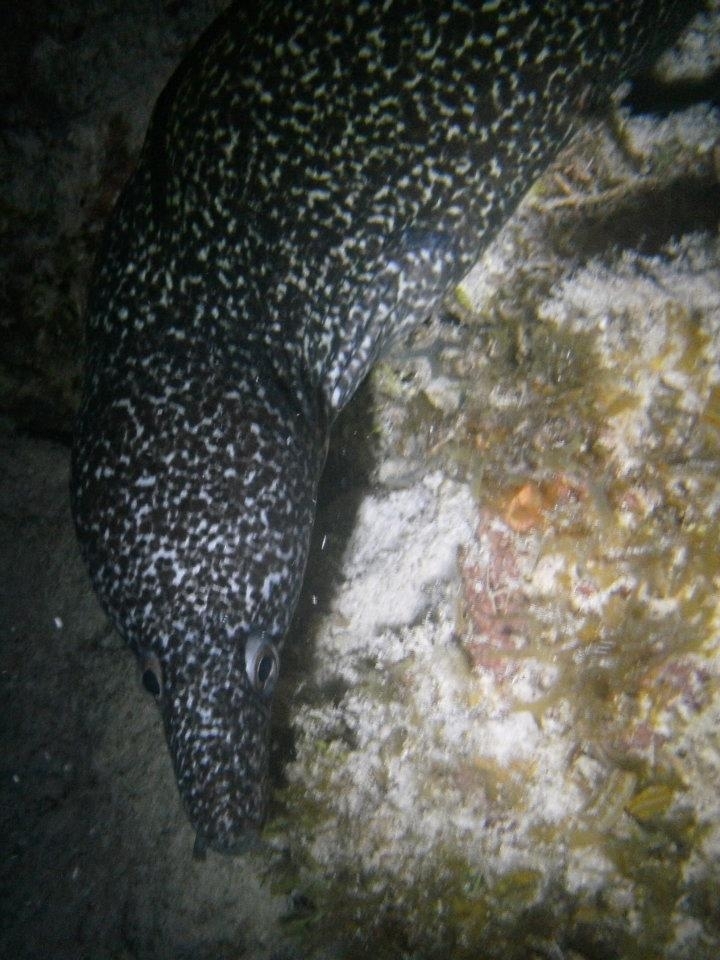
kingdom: Animalia
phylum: Chordata
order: Anguilliformes
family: Muraenidae
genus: Gymnothorax
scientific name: Gymnothorax moringa
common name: Spotted moray
